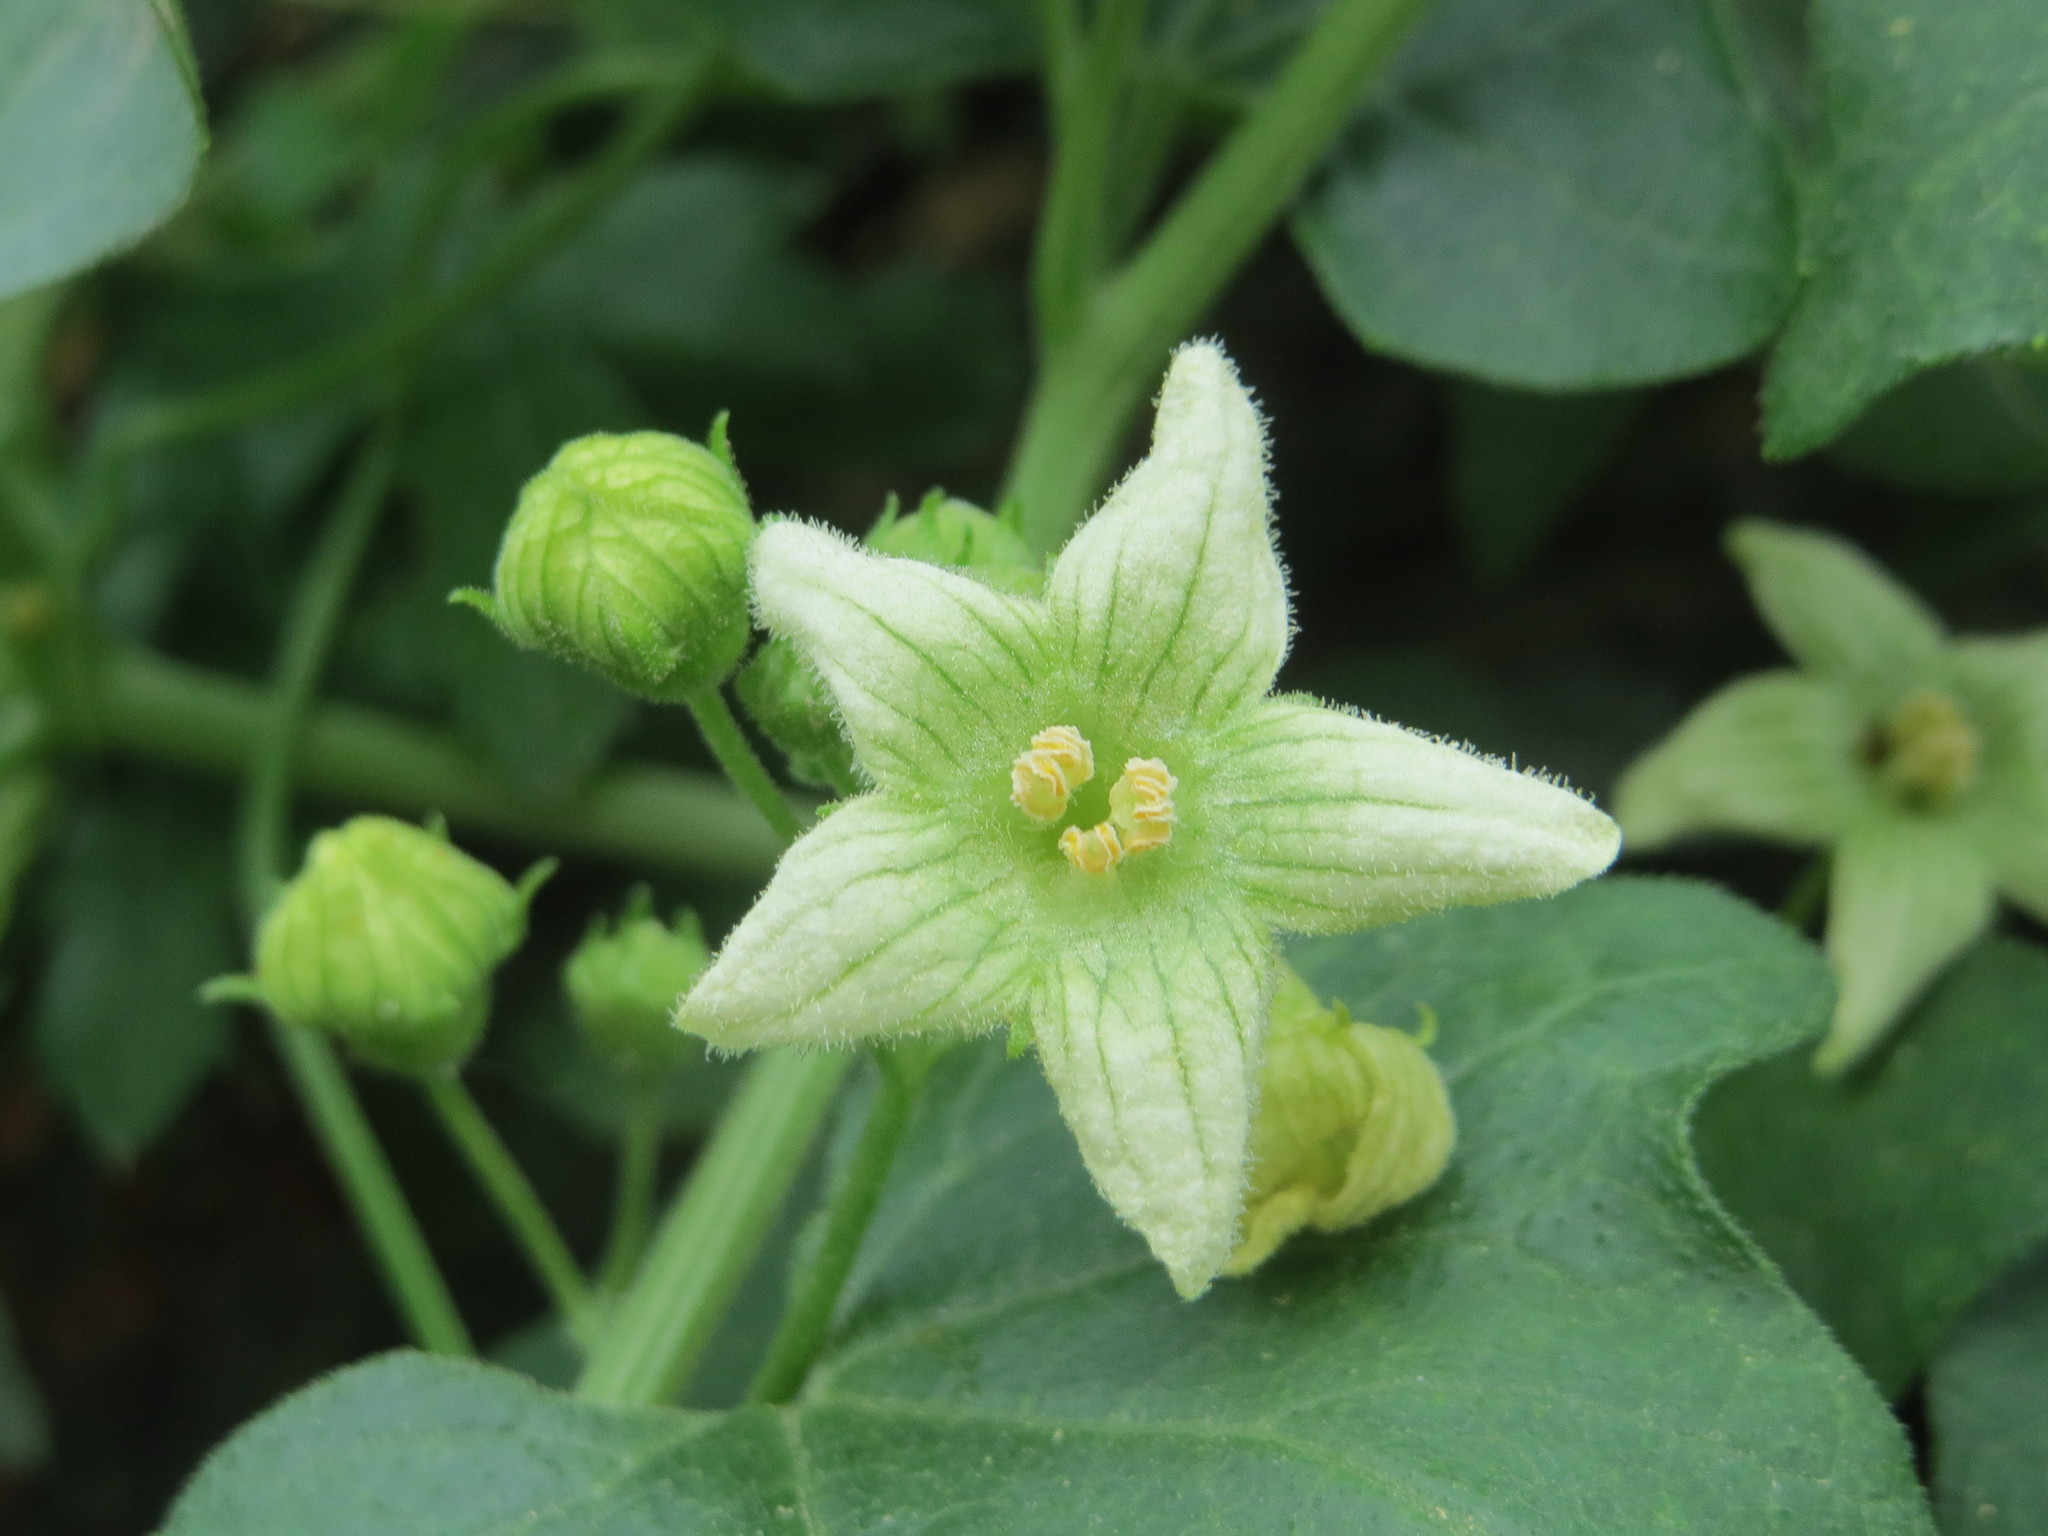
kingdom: Plantae
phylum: Tracheophyta
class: Magnoliopsida
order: Cucurbitales
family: Cucurbitaceae
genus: Bryonia
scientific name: Bryonia dioica
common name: White bryony
